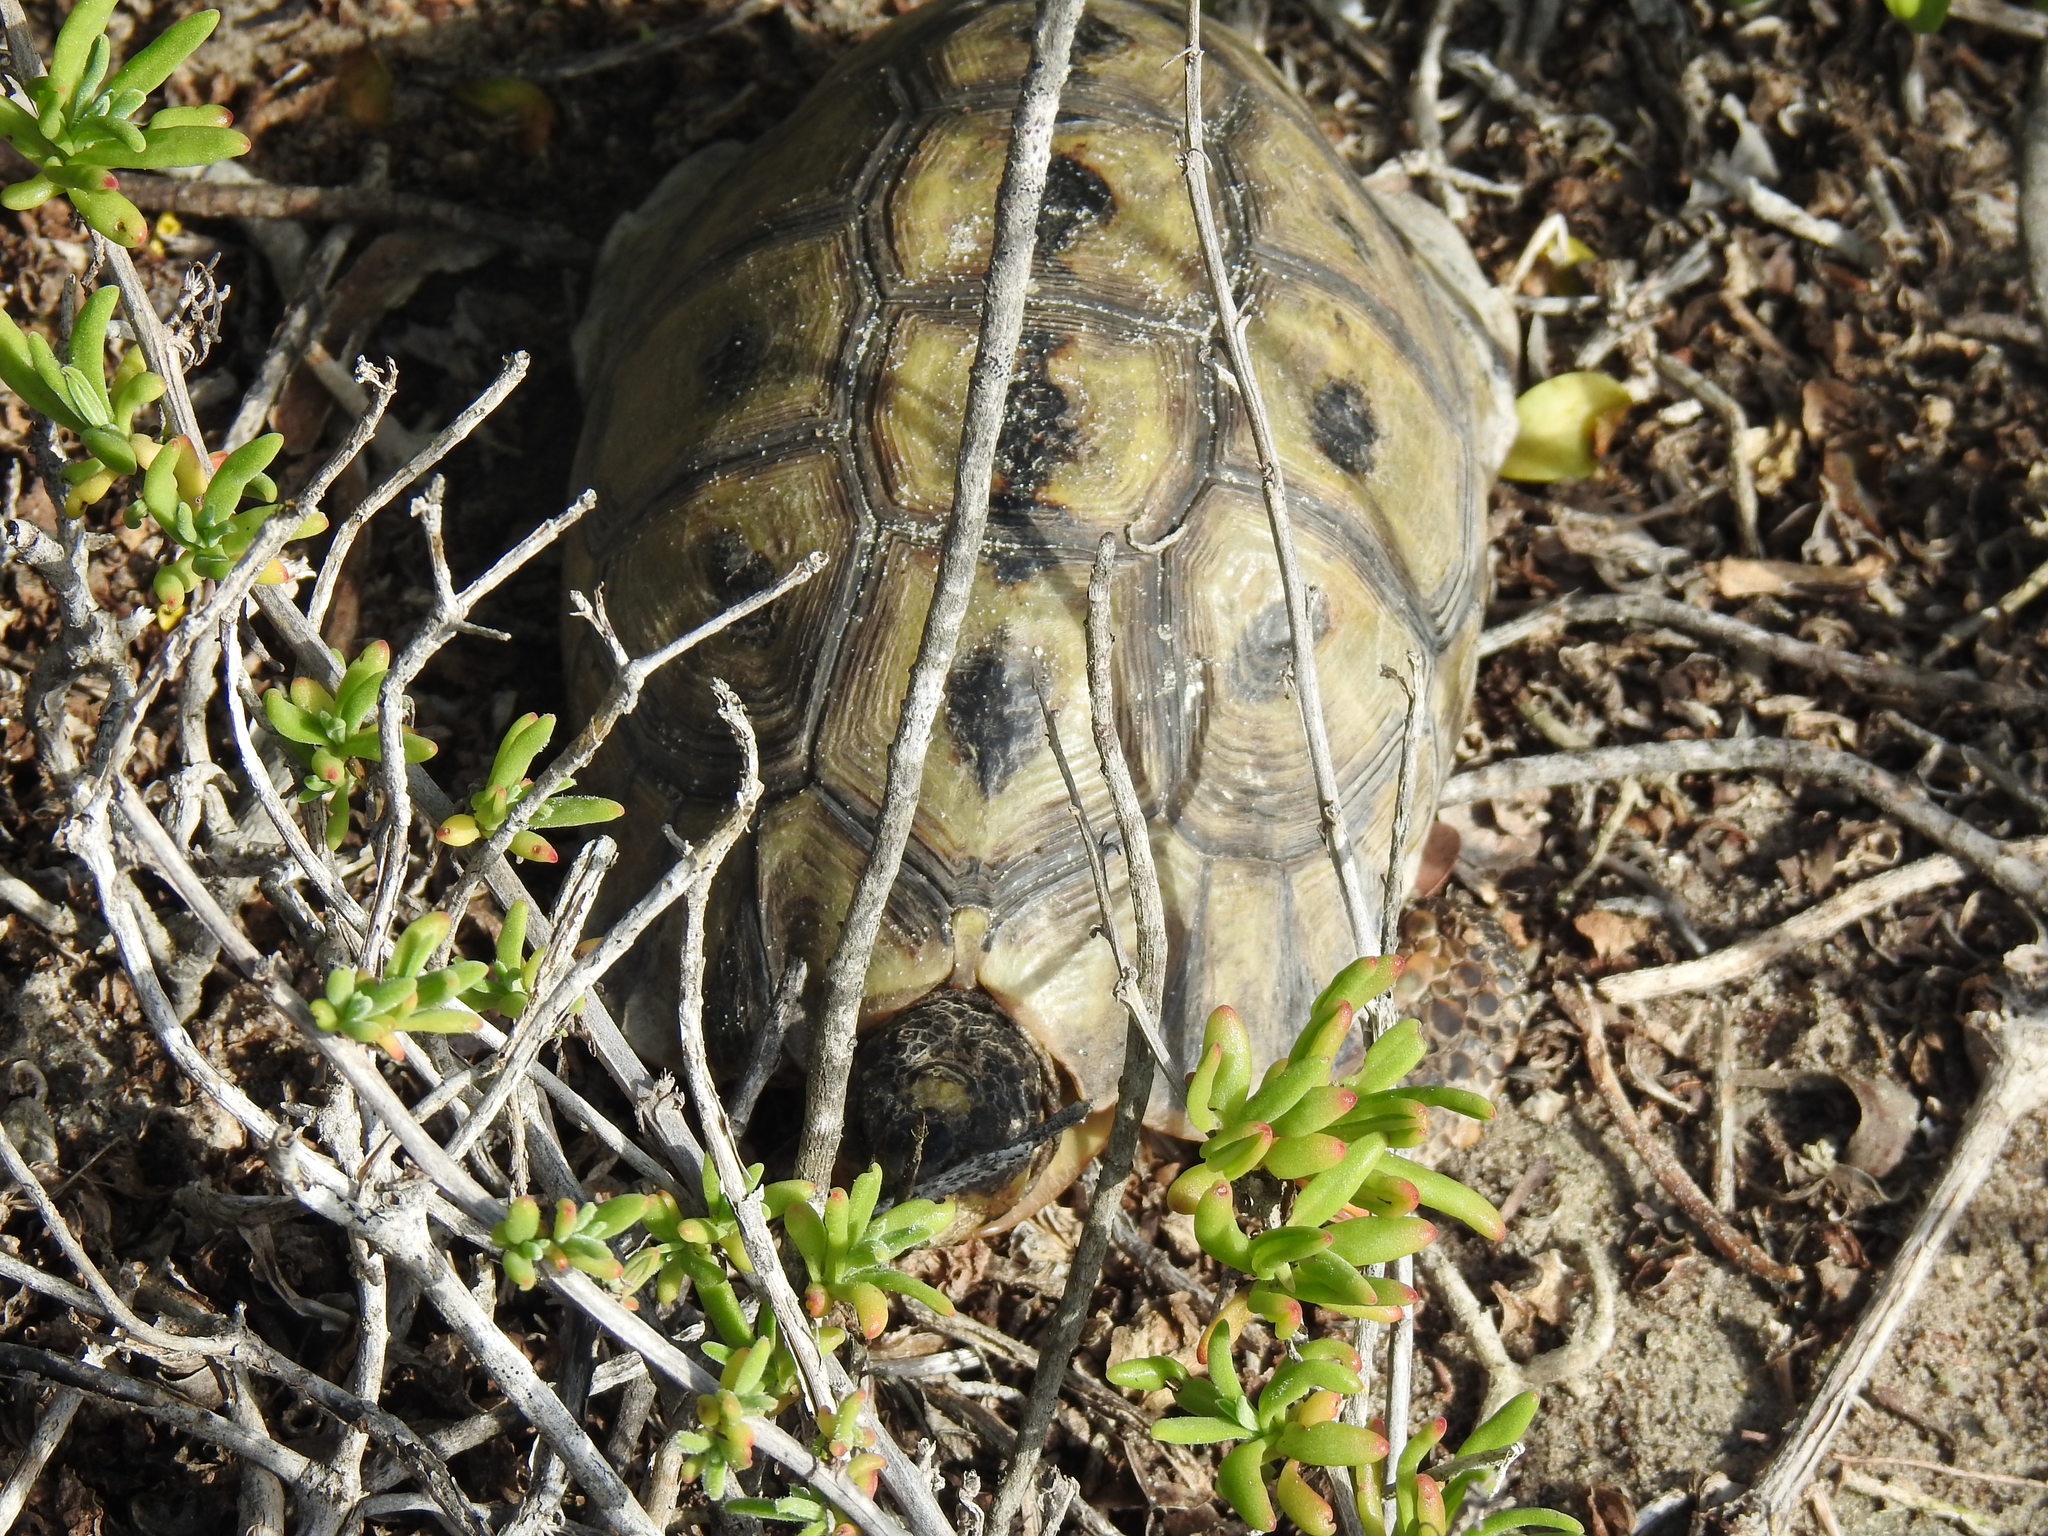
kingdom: Animalia
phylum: Chordata
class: Testudines
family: Testudinidae
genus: Chersina
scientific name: Chersina angulata
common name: South african bowsprit tortoise
